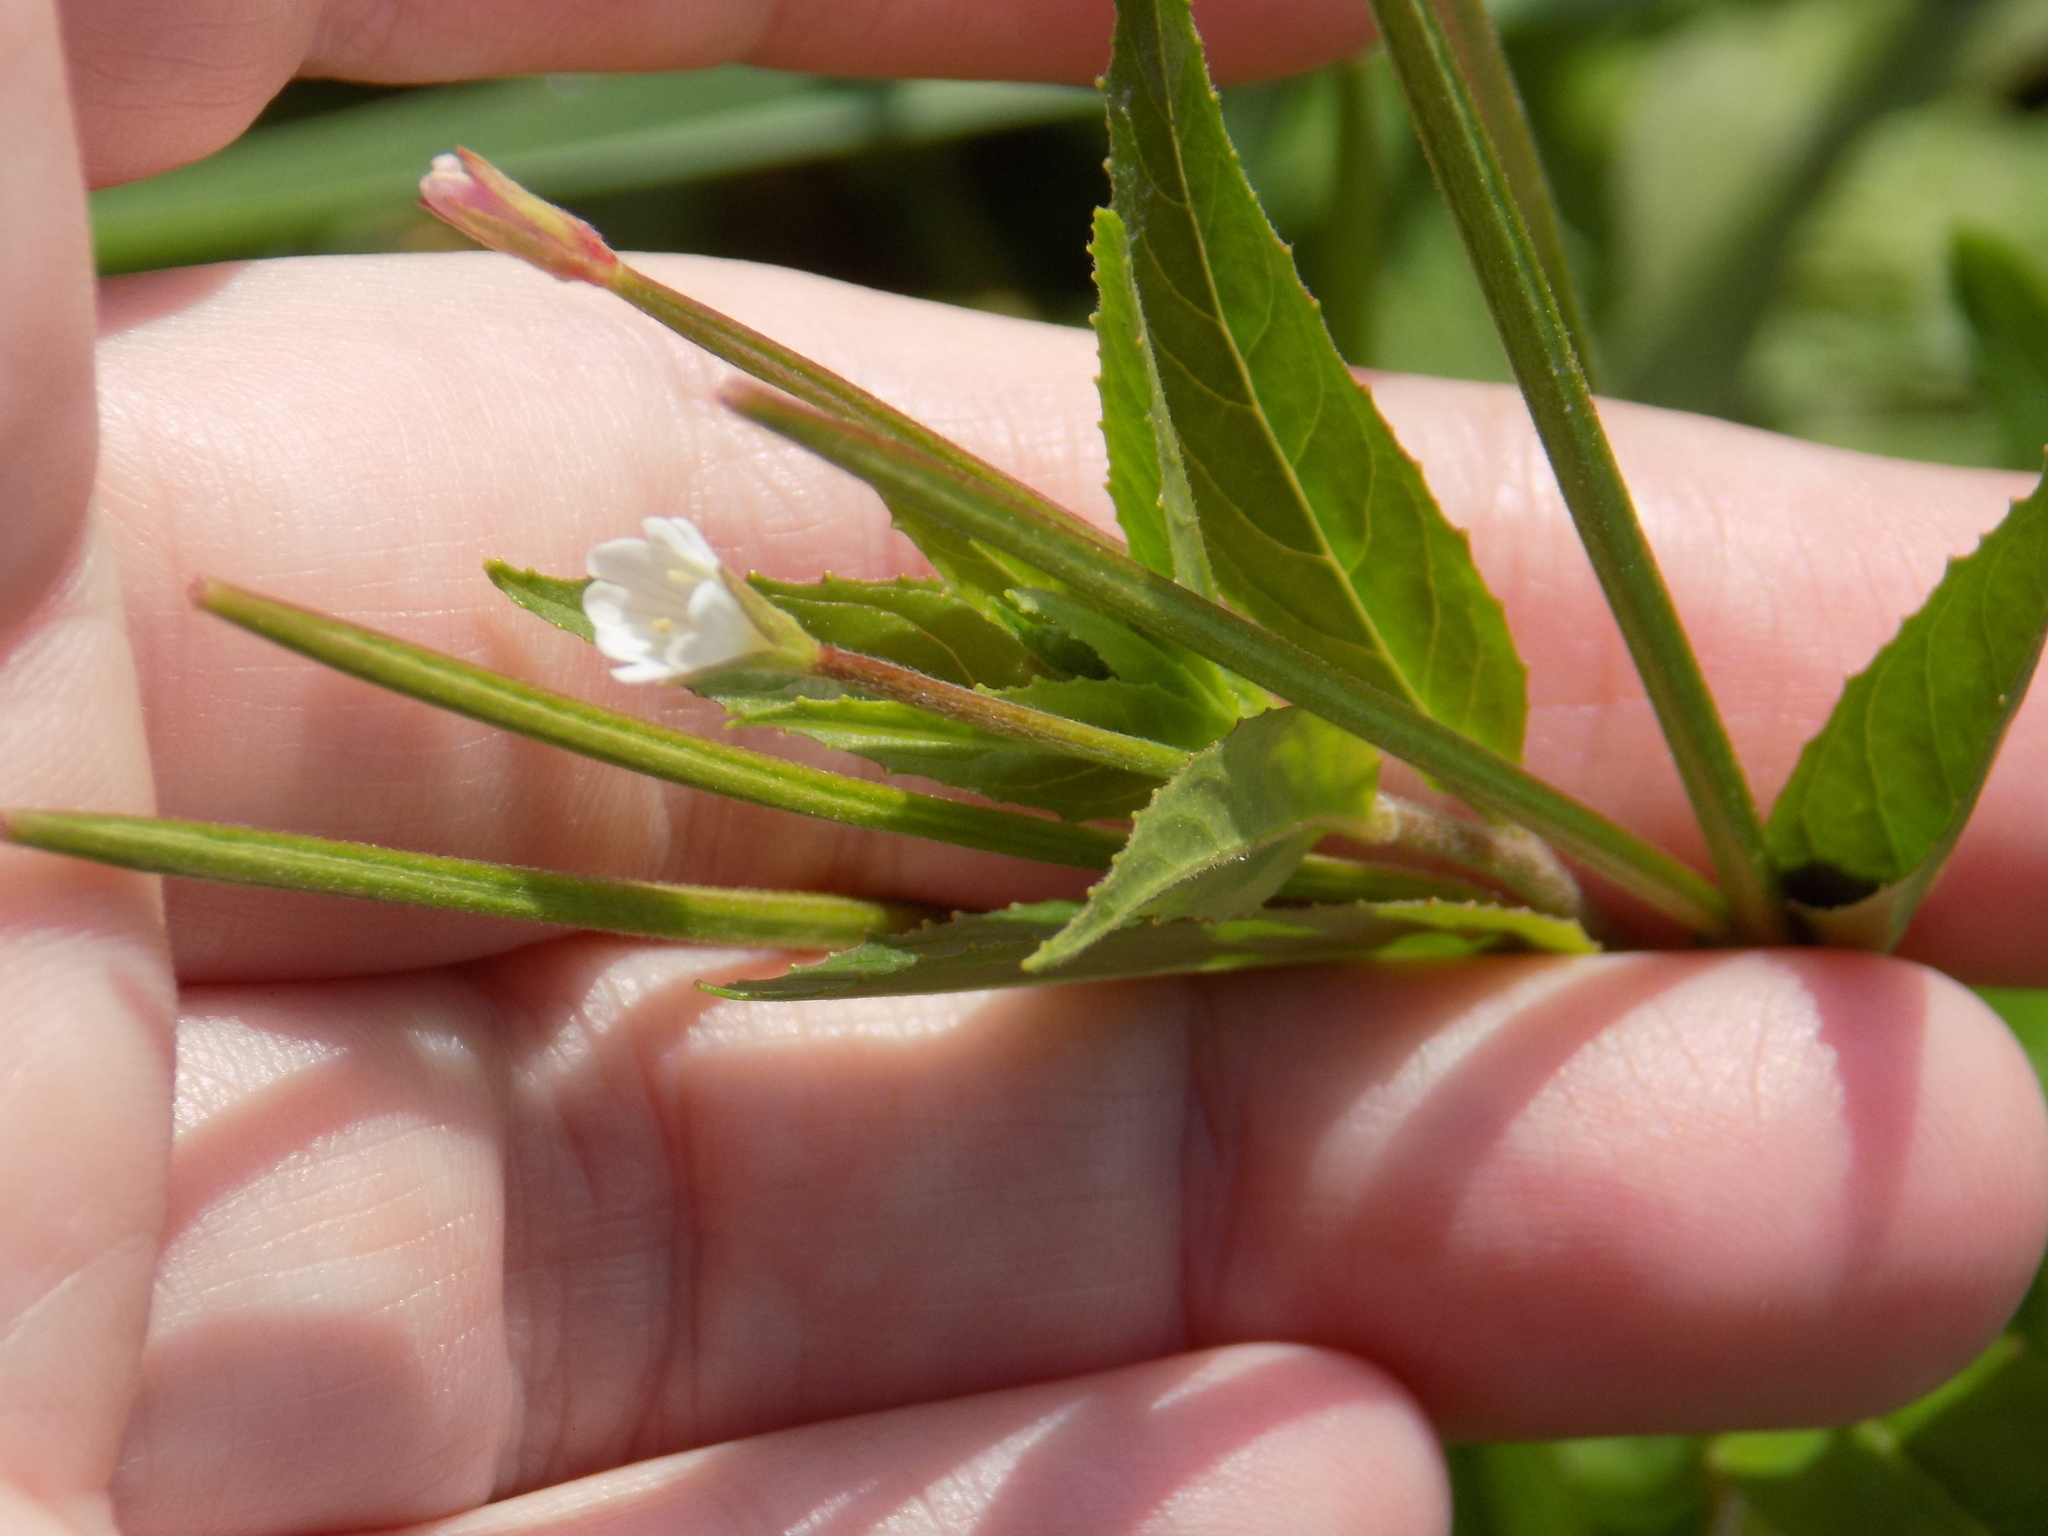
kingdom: Plantae
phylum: Tracheophyta
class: Magnoliopsida
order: Myrtales
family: Onagraceae
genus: Epilobium
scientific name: Epilobium pseudorubescens
